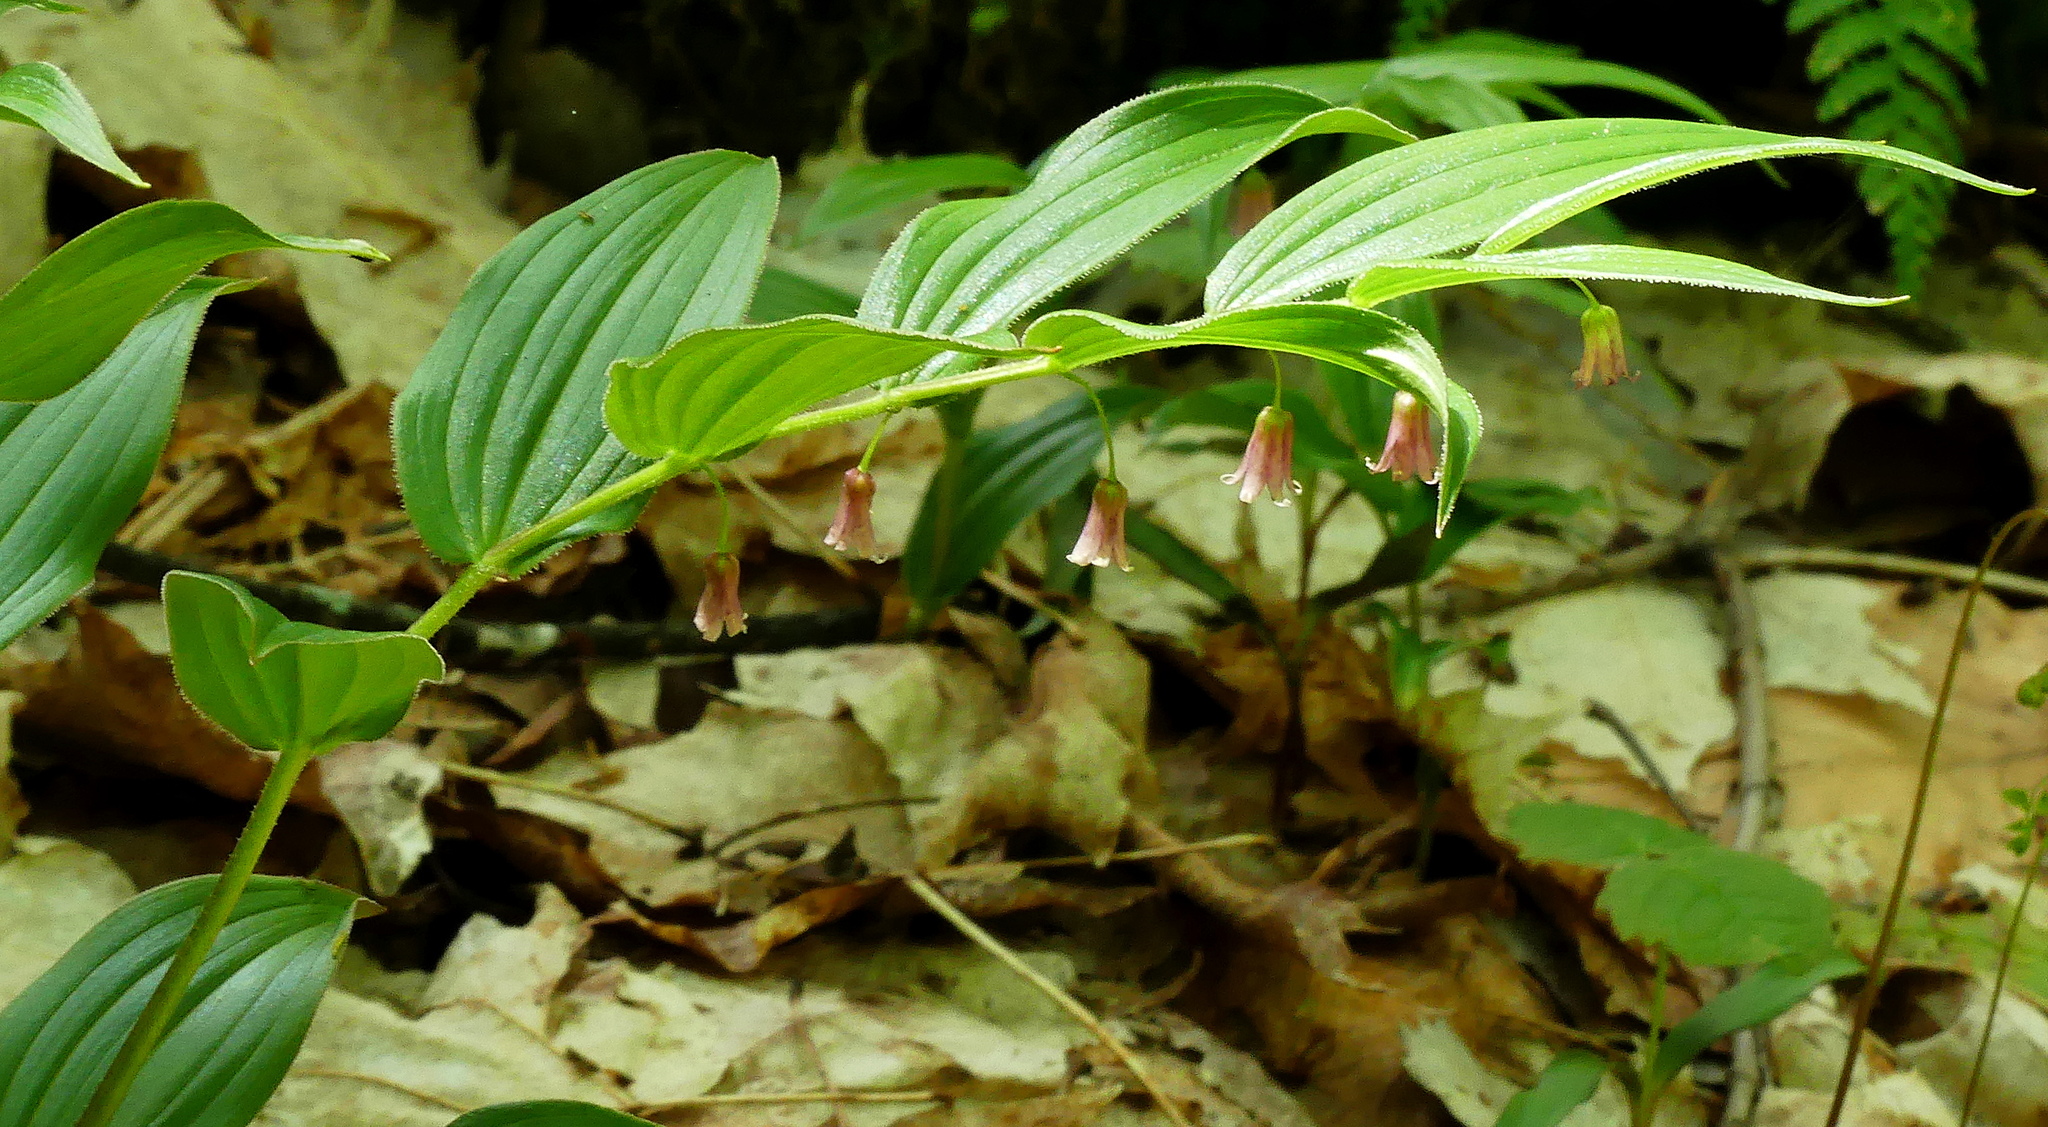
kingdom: Plantae
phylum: Tracheophyta
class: Liliopsida
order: Liliales
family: Liliaceae
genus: Streptopus
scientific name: Streptopus lanceolatus
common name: Rose mandarin
